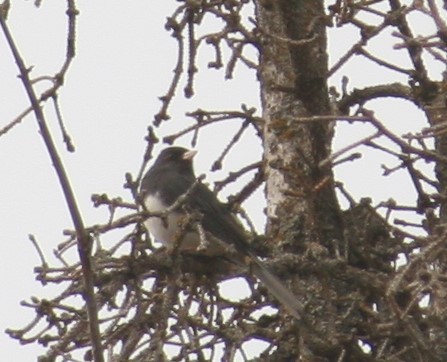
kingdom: Animalia
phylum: Chordata
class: Aves
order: Passeriformes
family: Passerellidae
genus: Junco
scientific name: Junco hyemalis
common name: Dark-eyed junco
